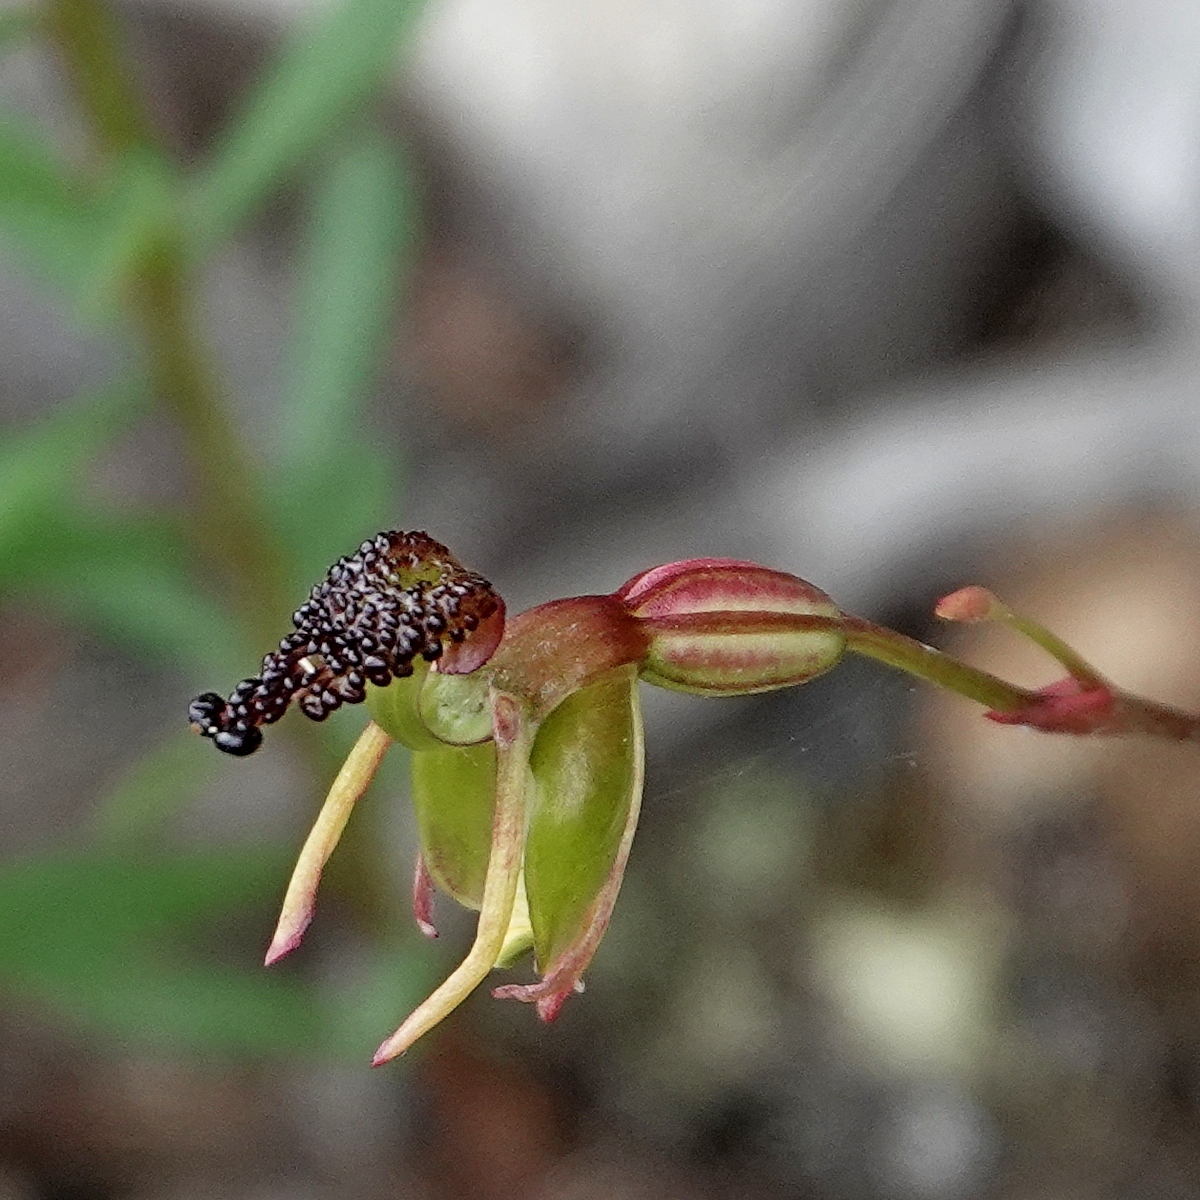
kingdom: Plantae
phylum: Tracheophyta
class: Liliopsida
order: Asparagales
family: Orchidaceae
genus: Caleana
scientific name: Caleana minor
